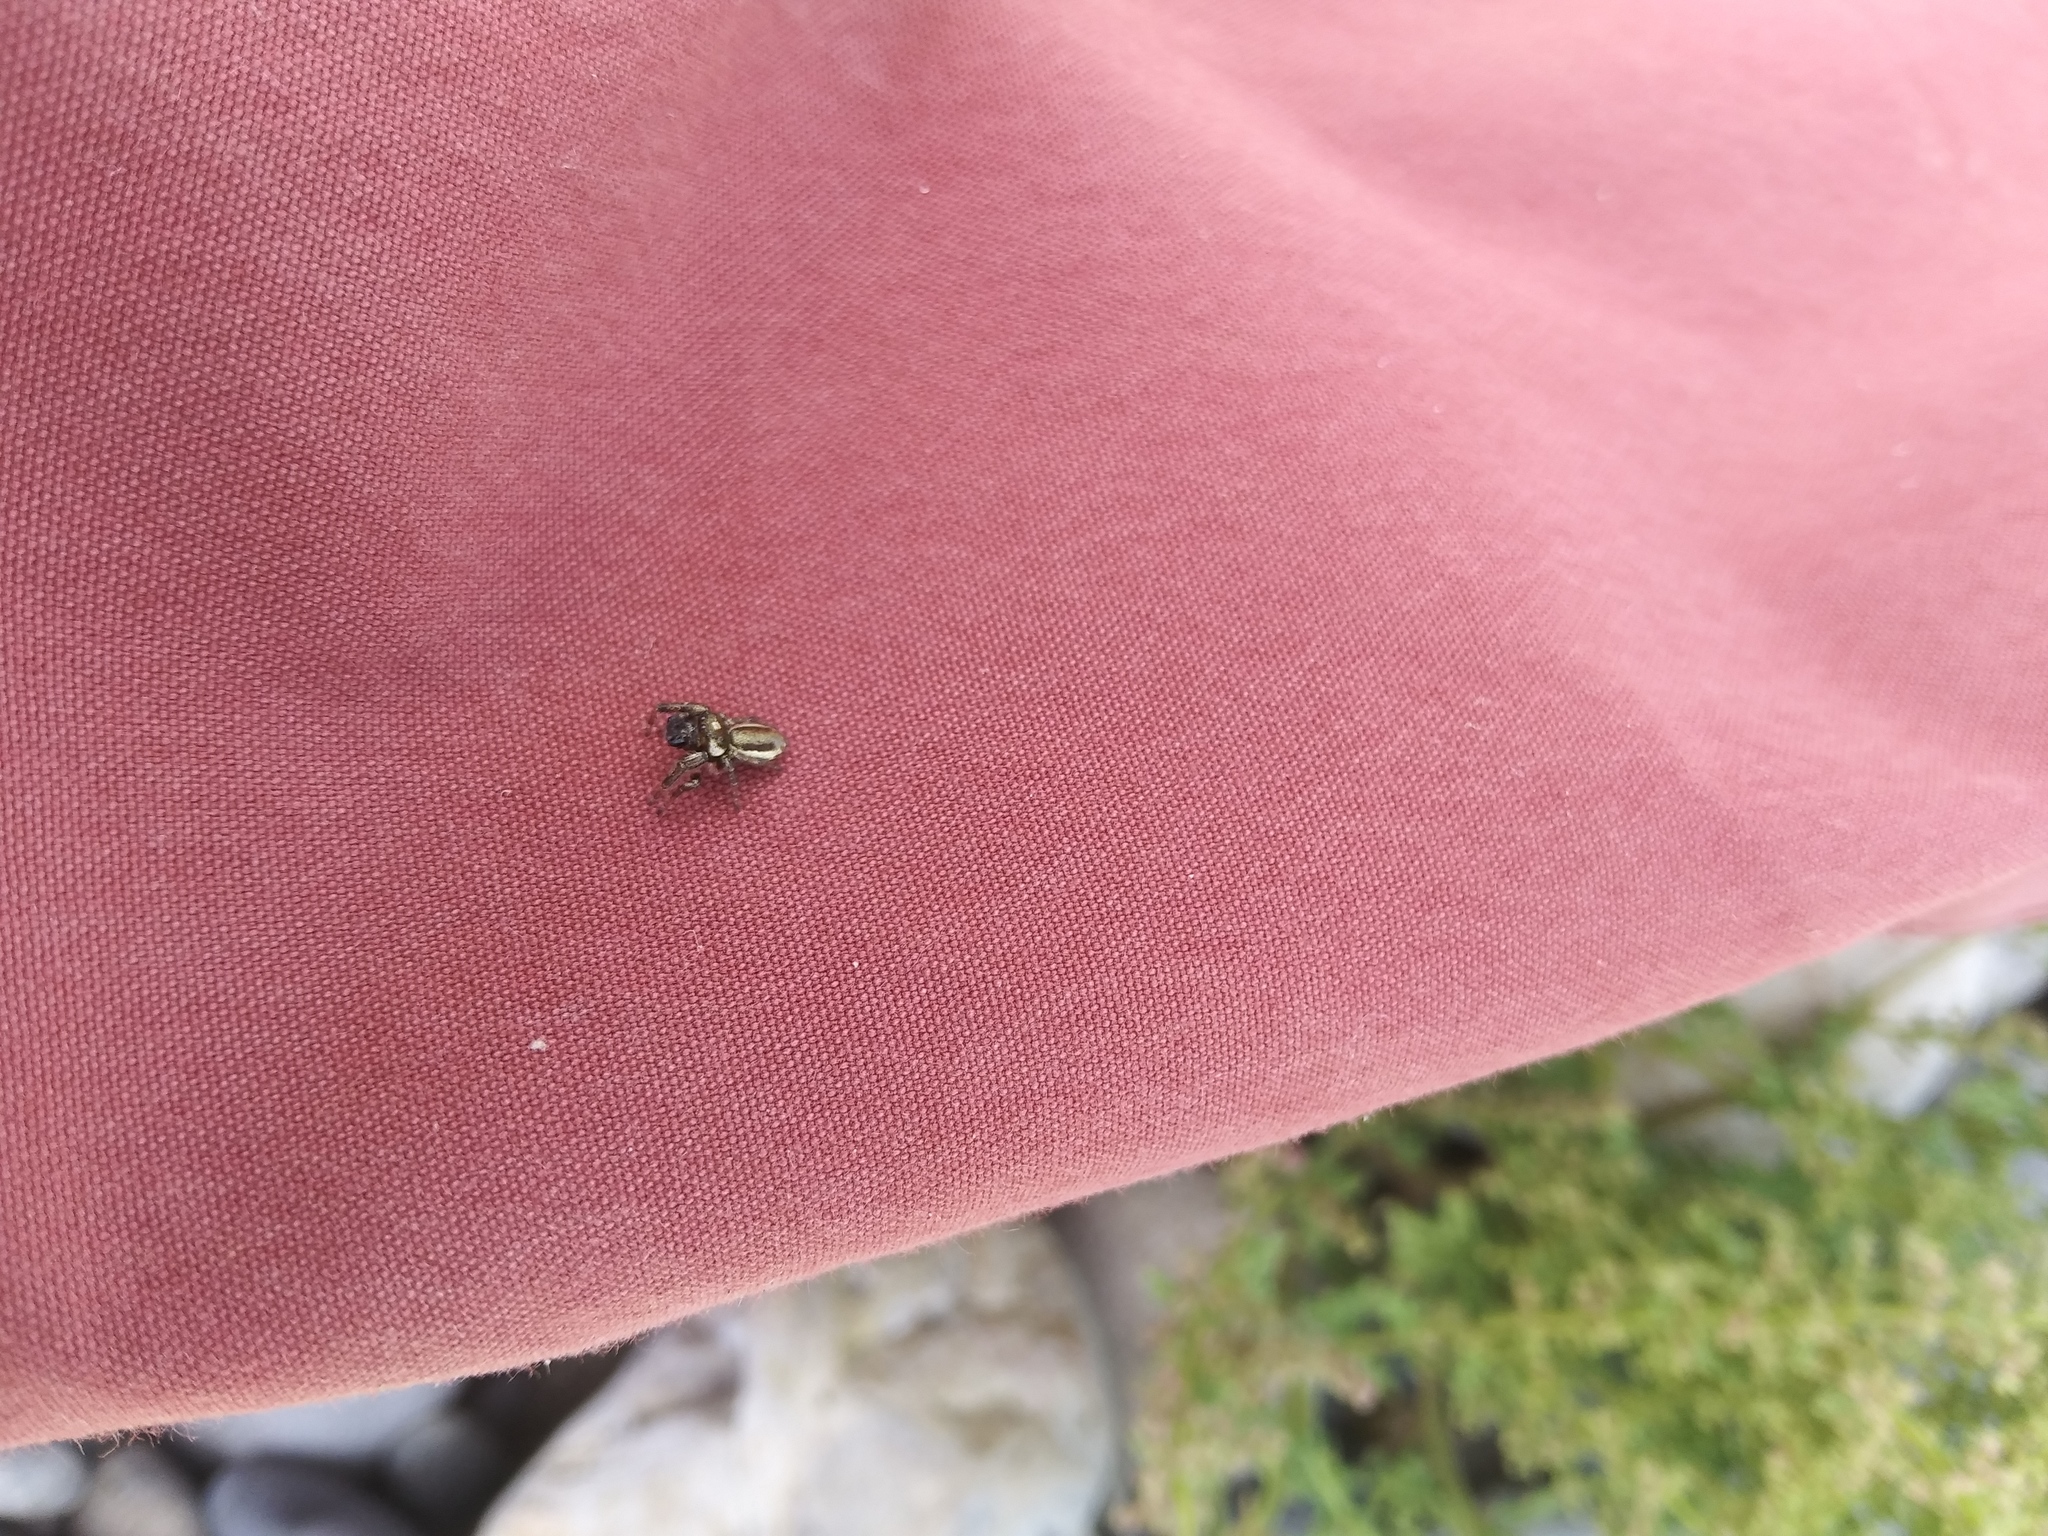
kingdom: Animalia
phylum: Arthropoda
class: Arachnida
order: Araneae
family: Salticidae
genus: Eris
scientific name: Eris militaris
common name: Bronze jumper
